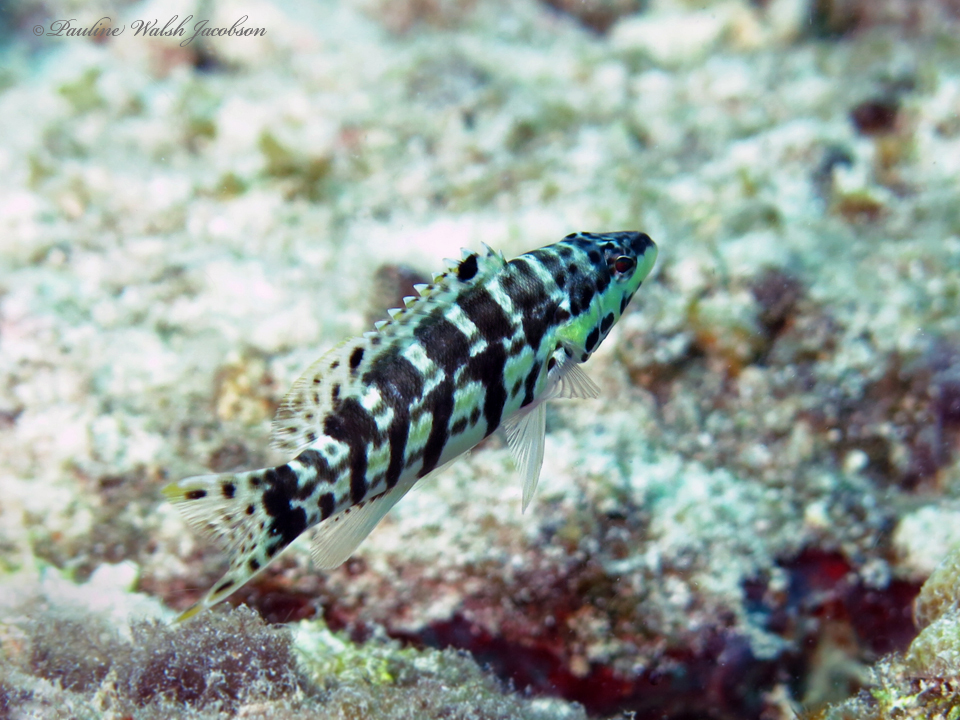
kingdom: Animalia
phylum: Chordata
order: Perciformes
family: Serranidae
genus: Serranus
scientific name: Serranus tigrinus
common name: Harlequin bass
